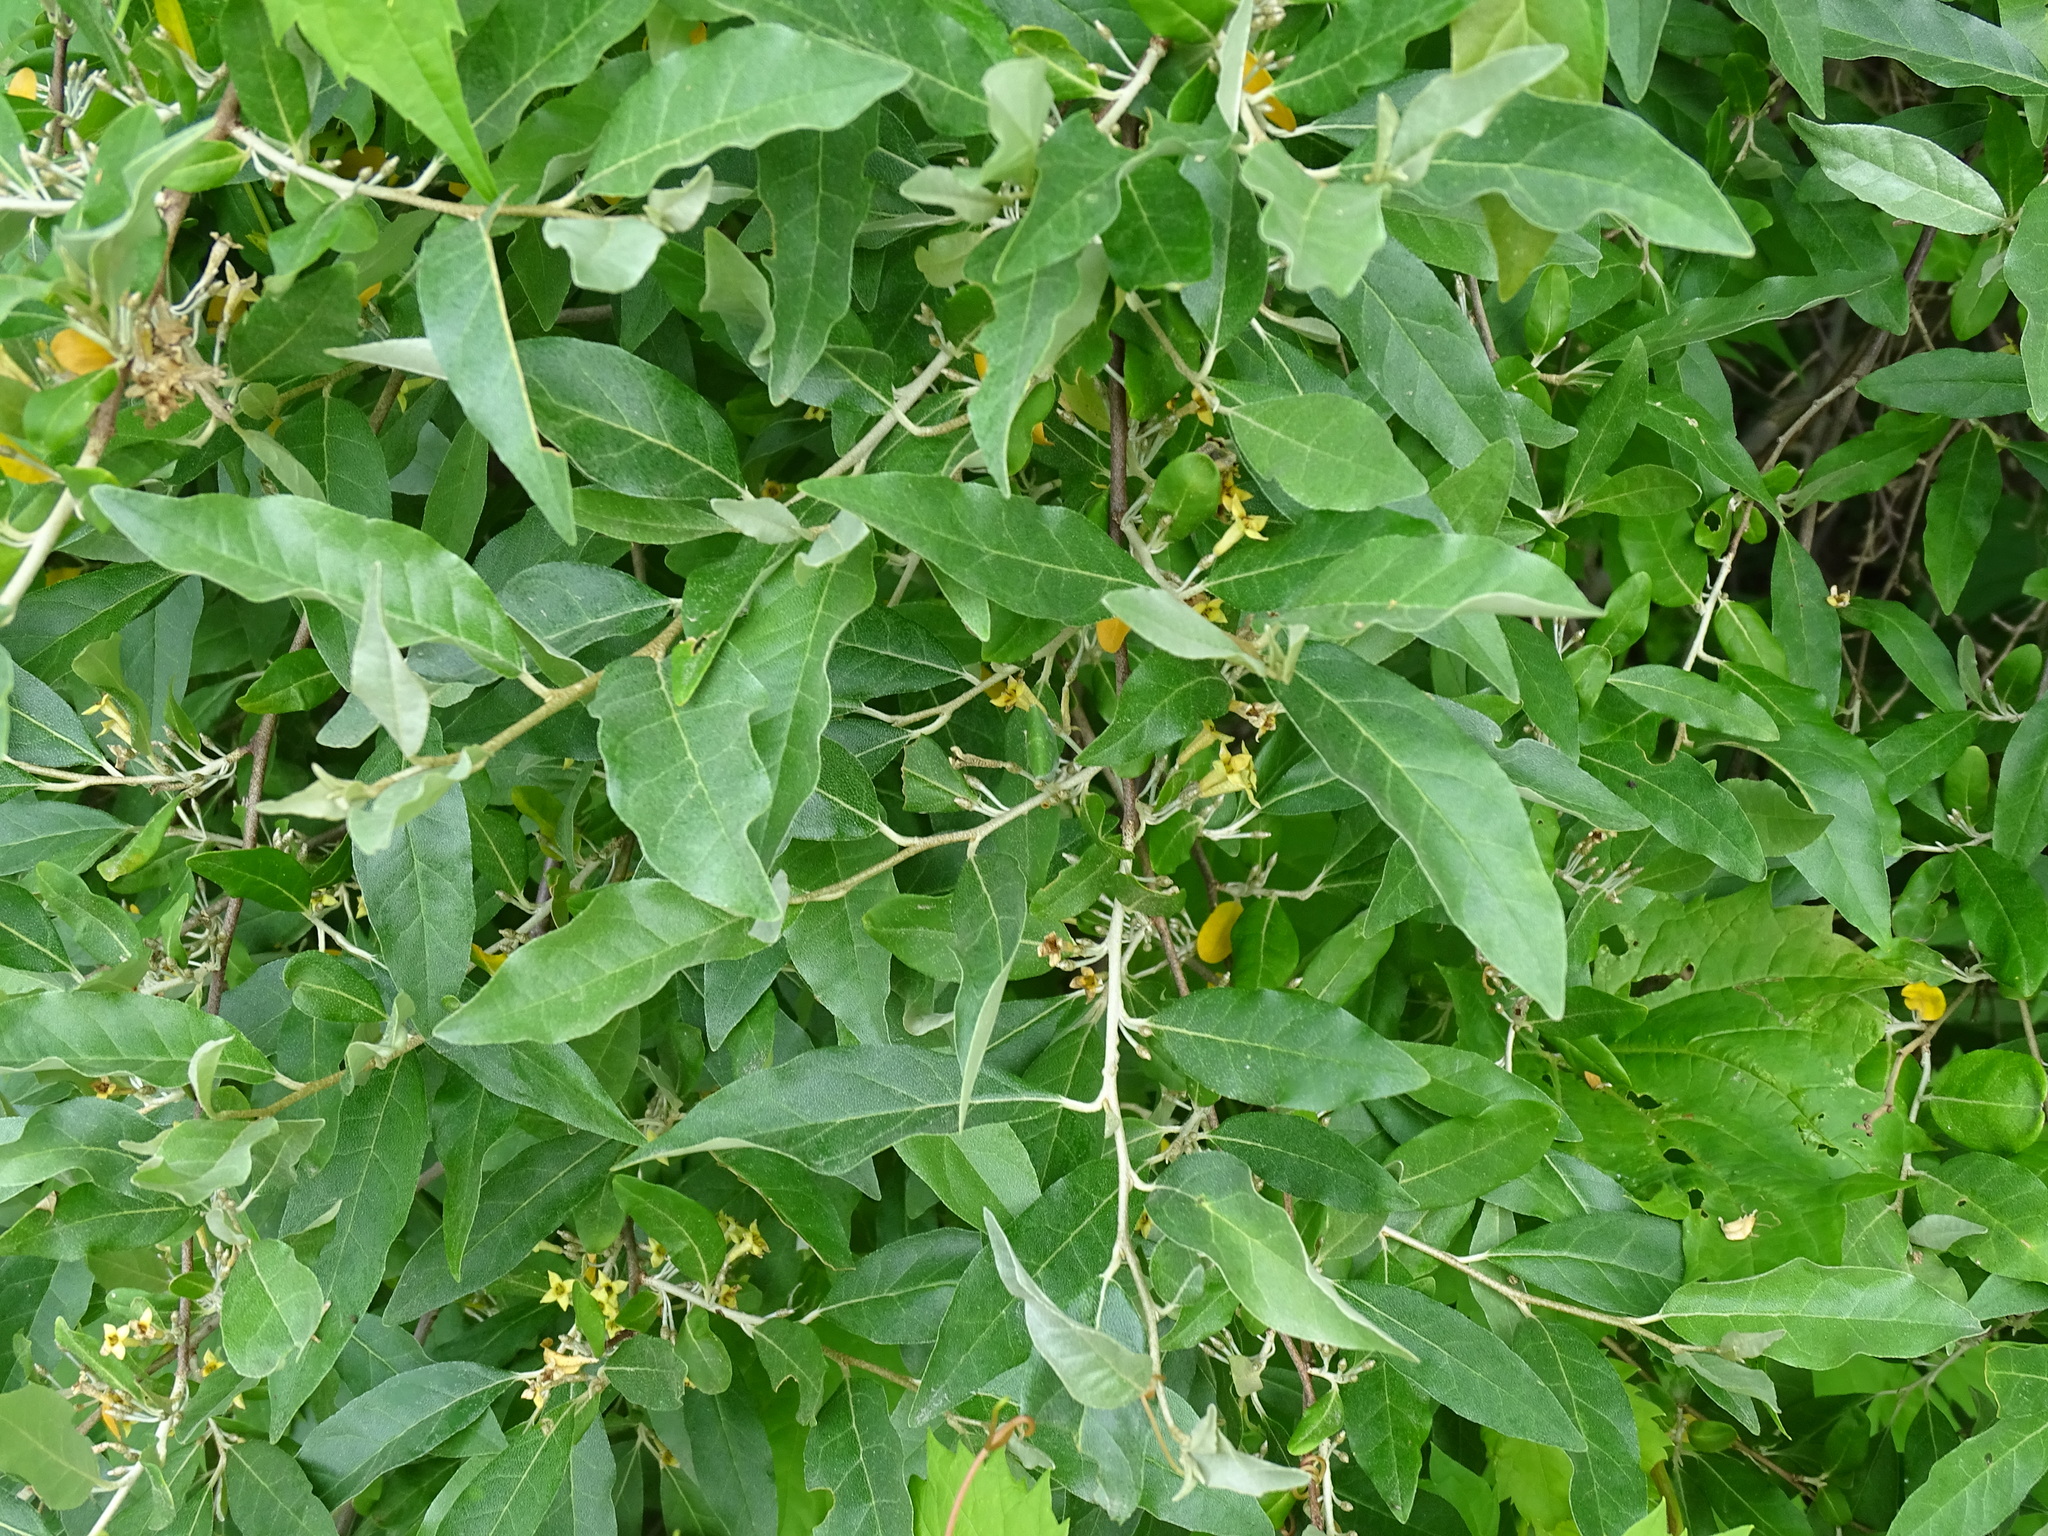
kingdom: Plantae
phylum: Tracheophyta
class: Magnoliopsida
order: Rosales
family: Elaeagnaceae
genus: Elaeagnus
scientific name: Elaeagnus umbellata
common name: Autumn olive
